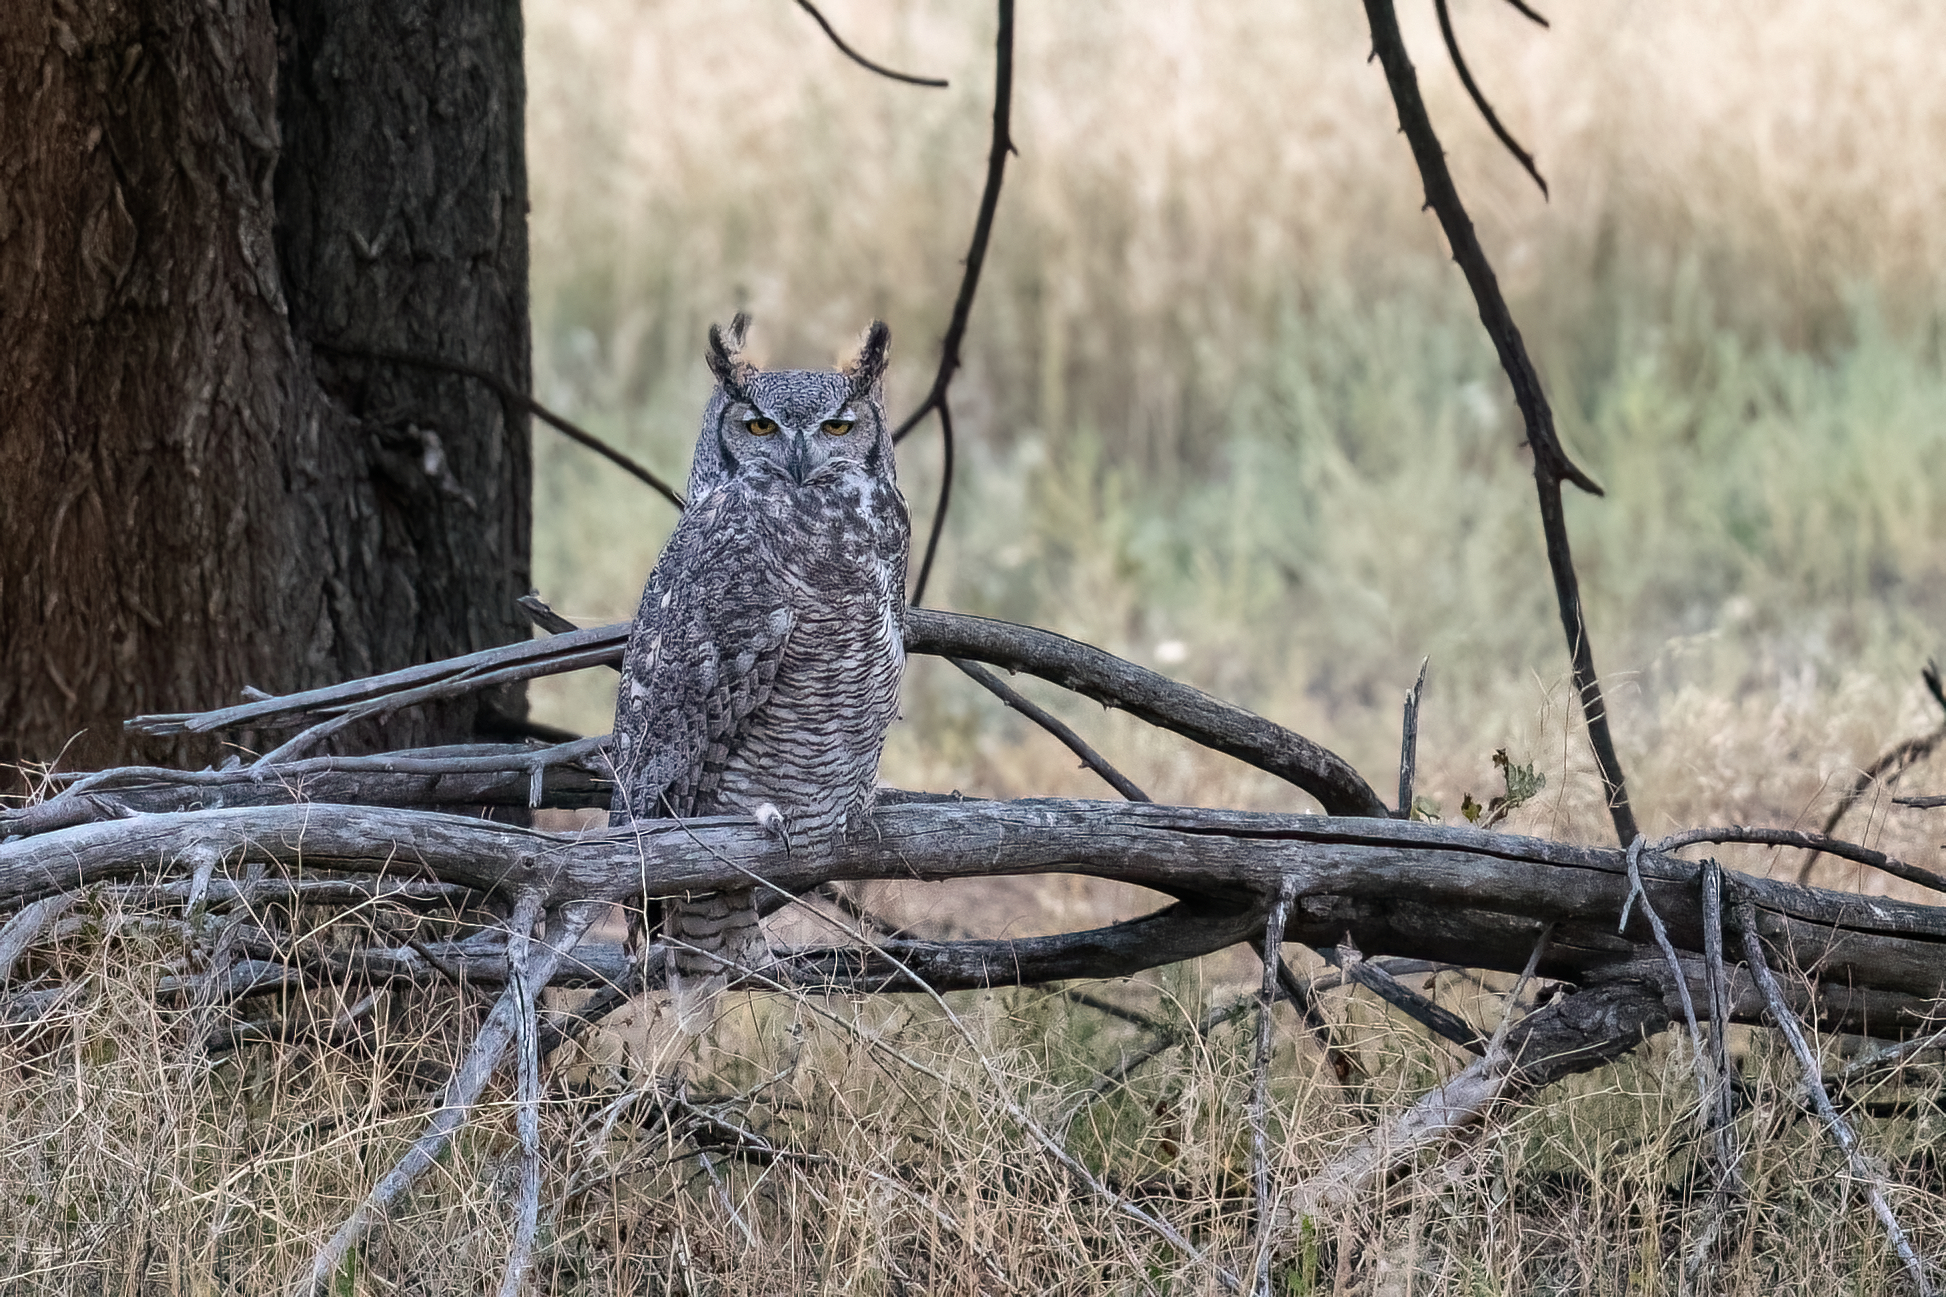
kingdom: Animalia
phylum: Chordata
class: Aves
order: Strigiformes
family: Strigidae
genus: Bubo
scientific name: Bubo virginianus
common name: Great horned owl
